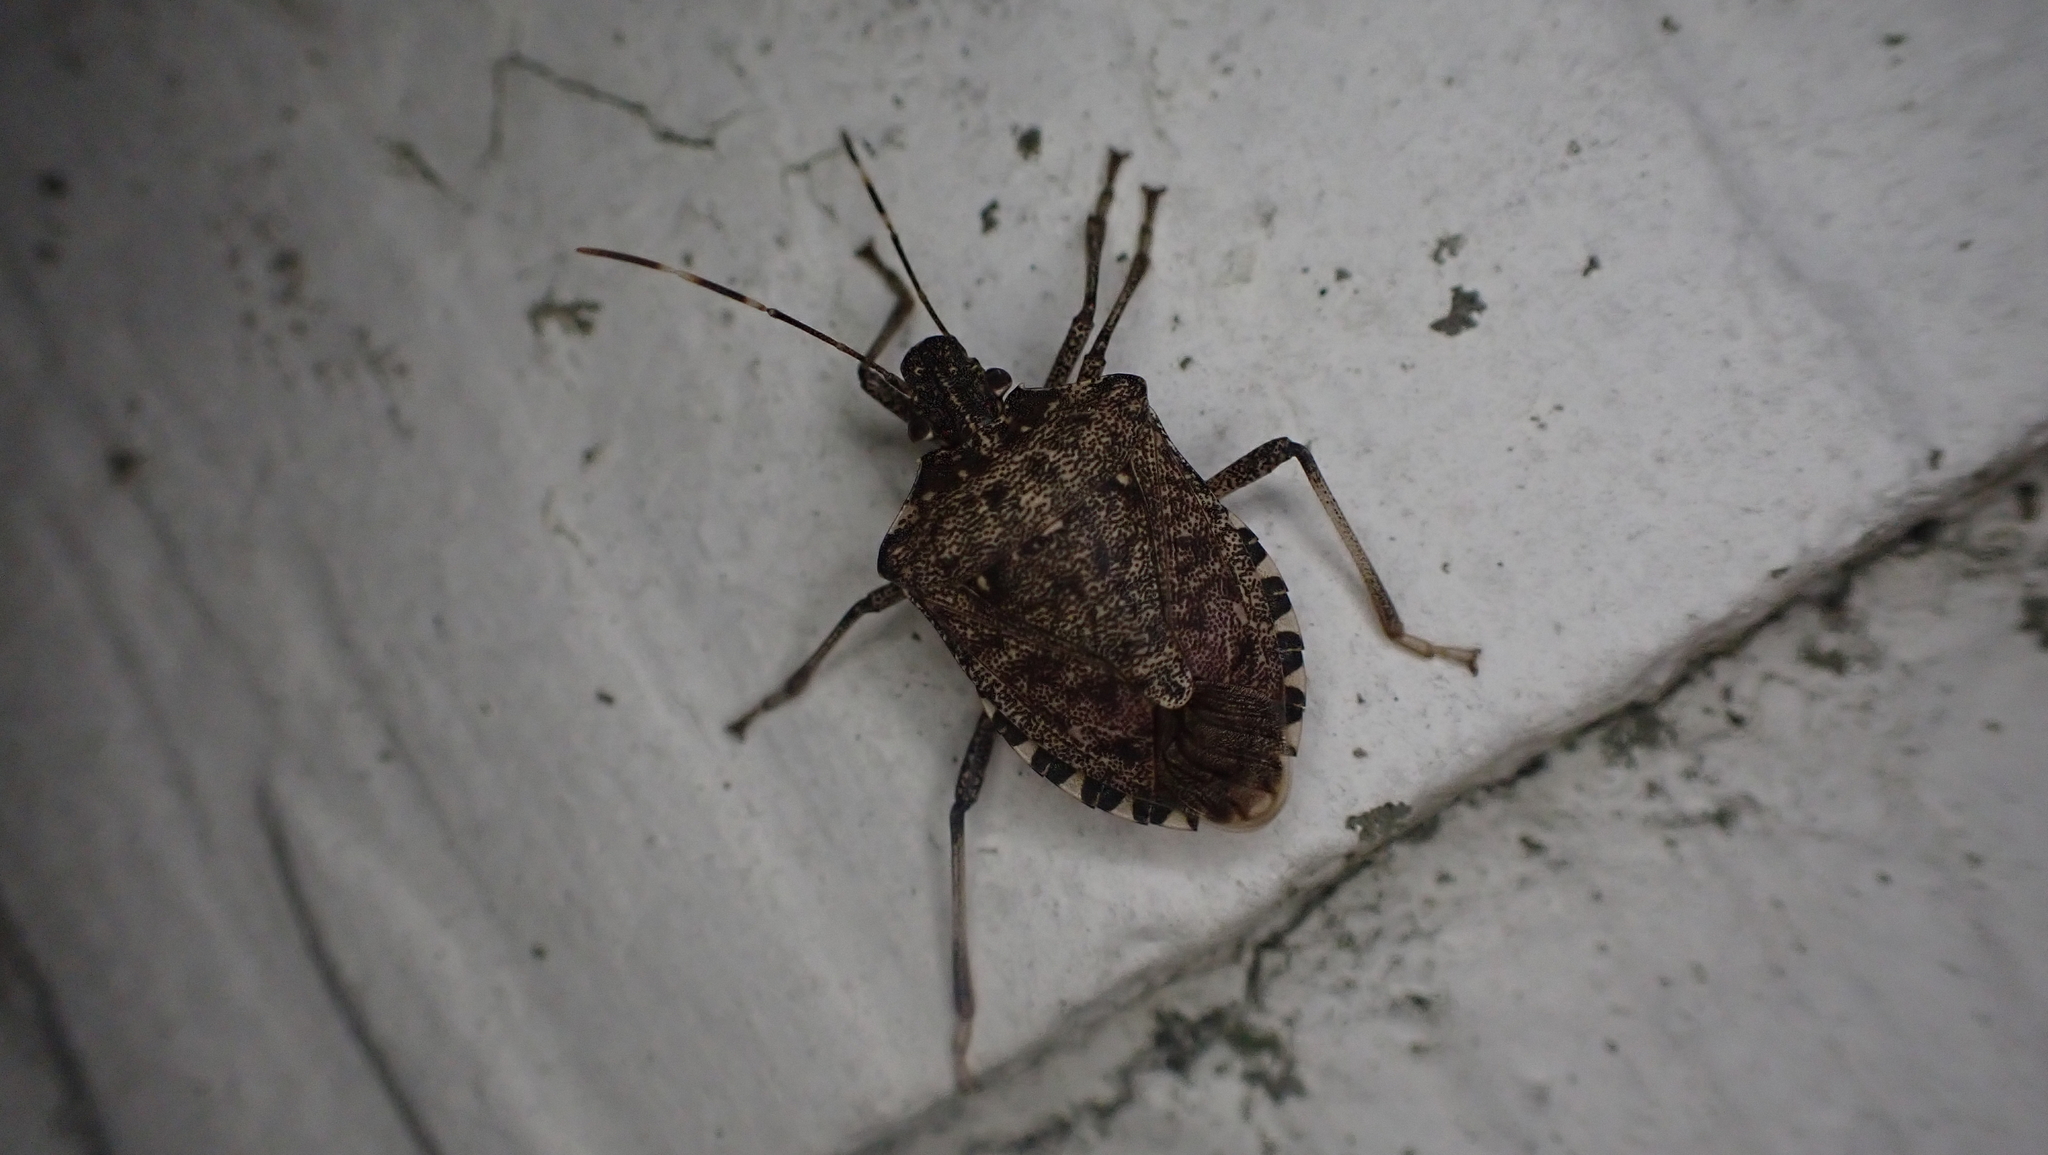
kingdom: Animalia
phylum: Arthropoda
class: Insecta
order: Hemiptera
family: Pentatomidae
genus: Halyomorpha
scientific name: Halyomorpha halys
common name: Brown marmorated stink bug
